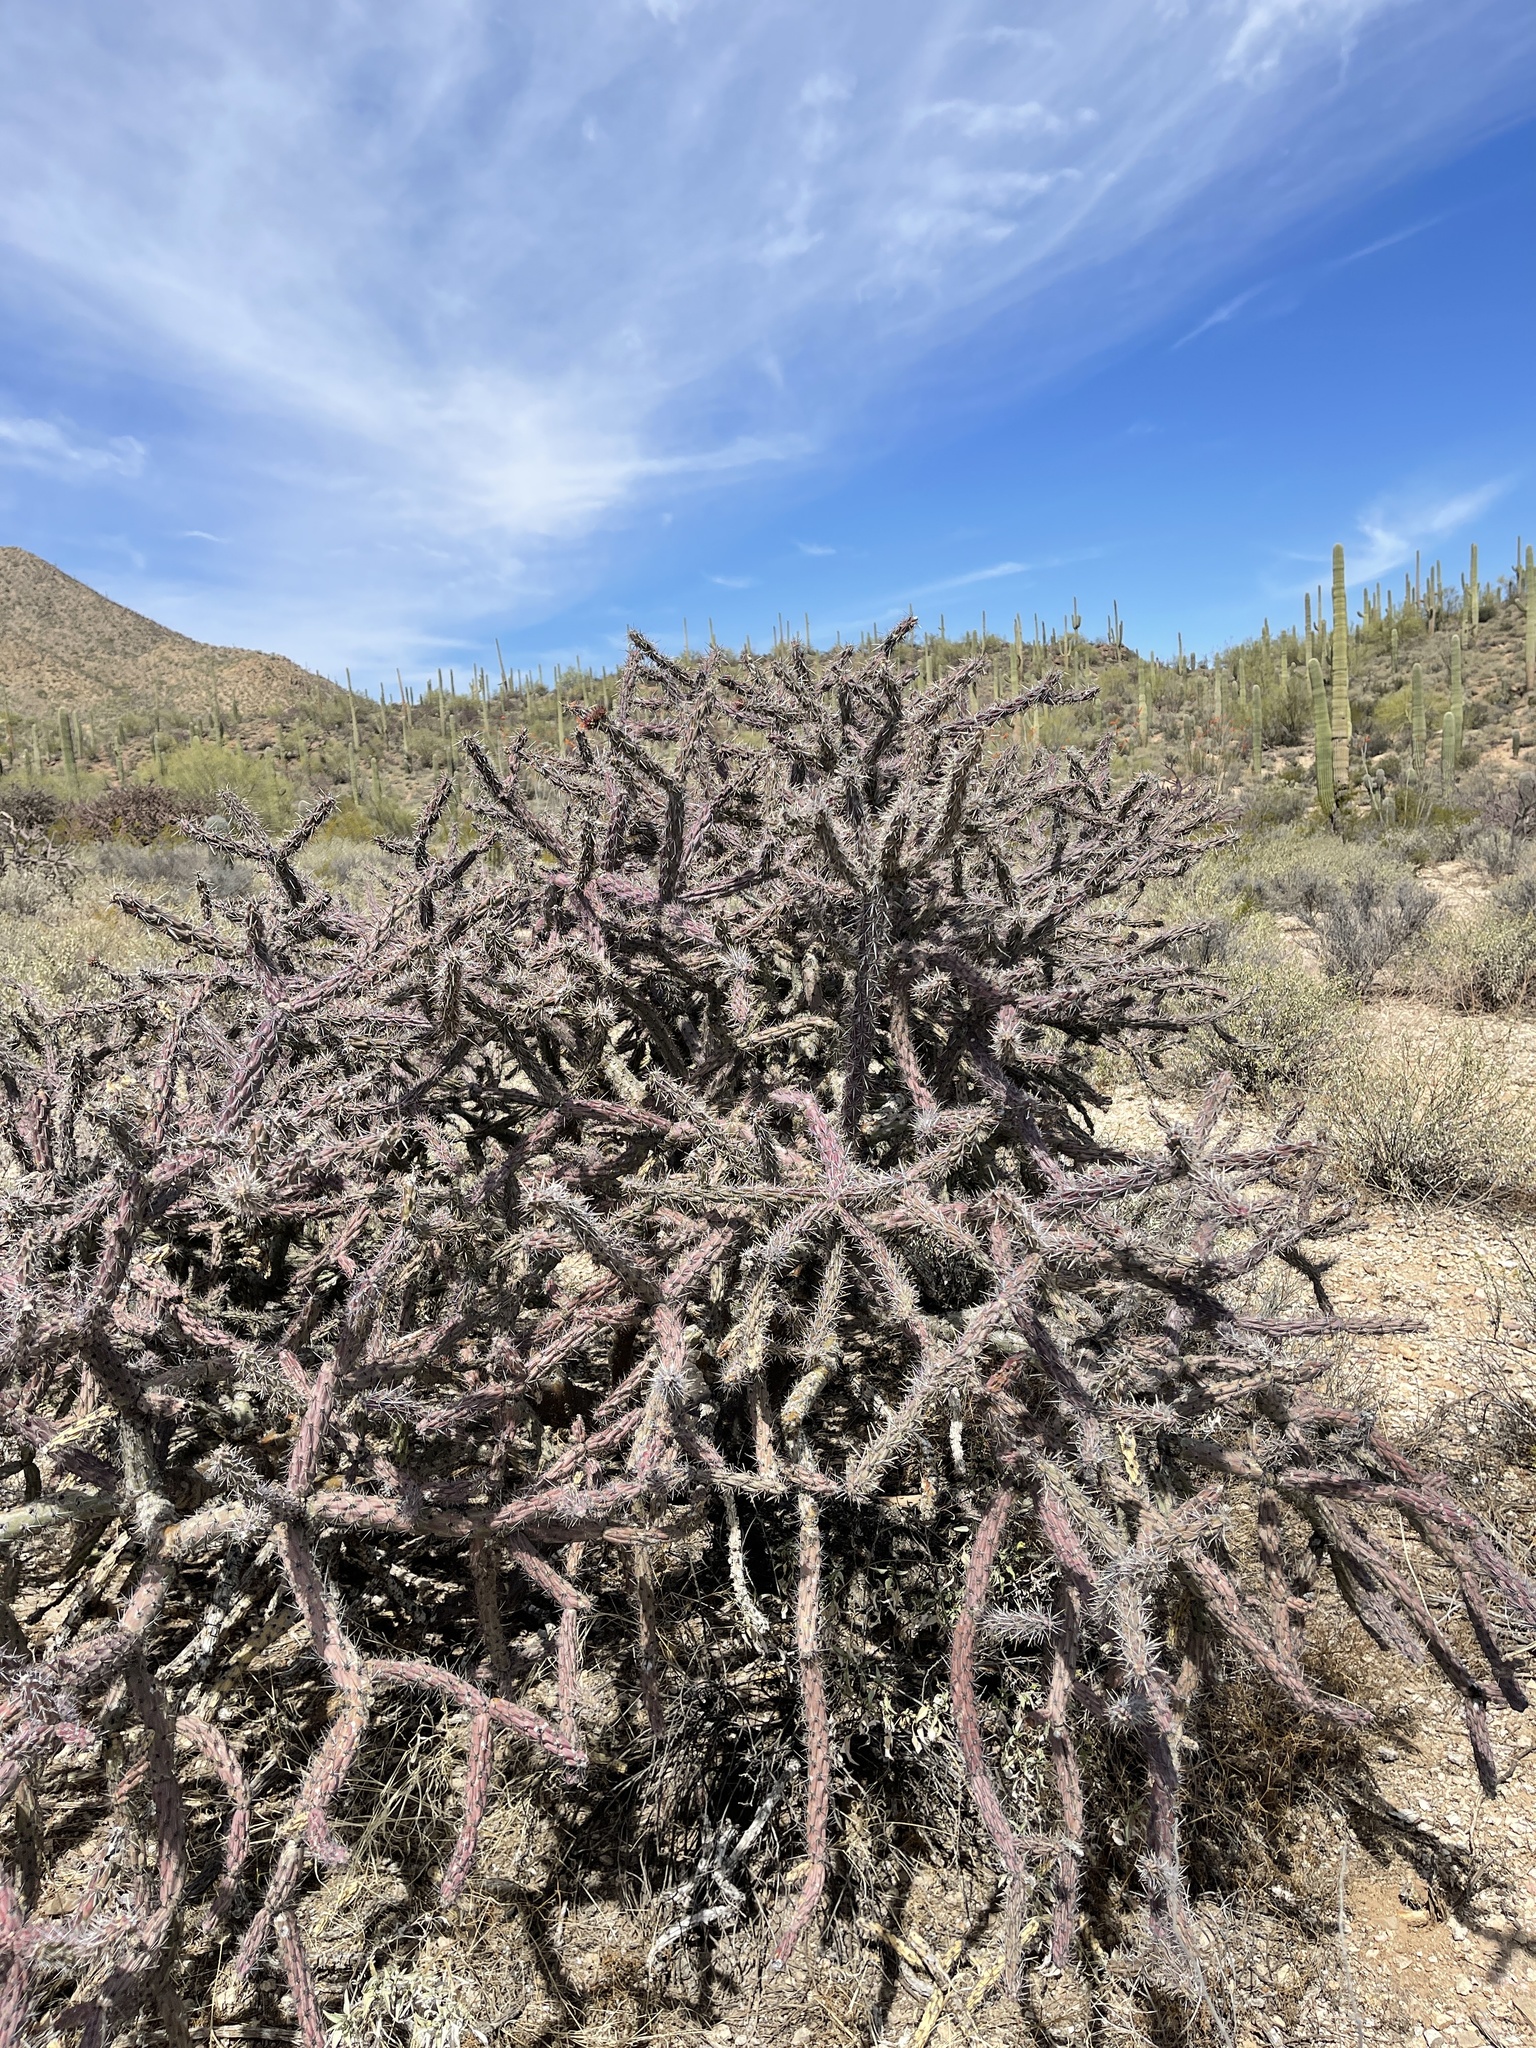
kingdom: Plantae
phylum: Tracheophyta
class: Magnoliopsida
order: Caryophyllales
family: Cactaceae
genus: Cylindropuntia
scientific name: Cylindropuntia thurberi
